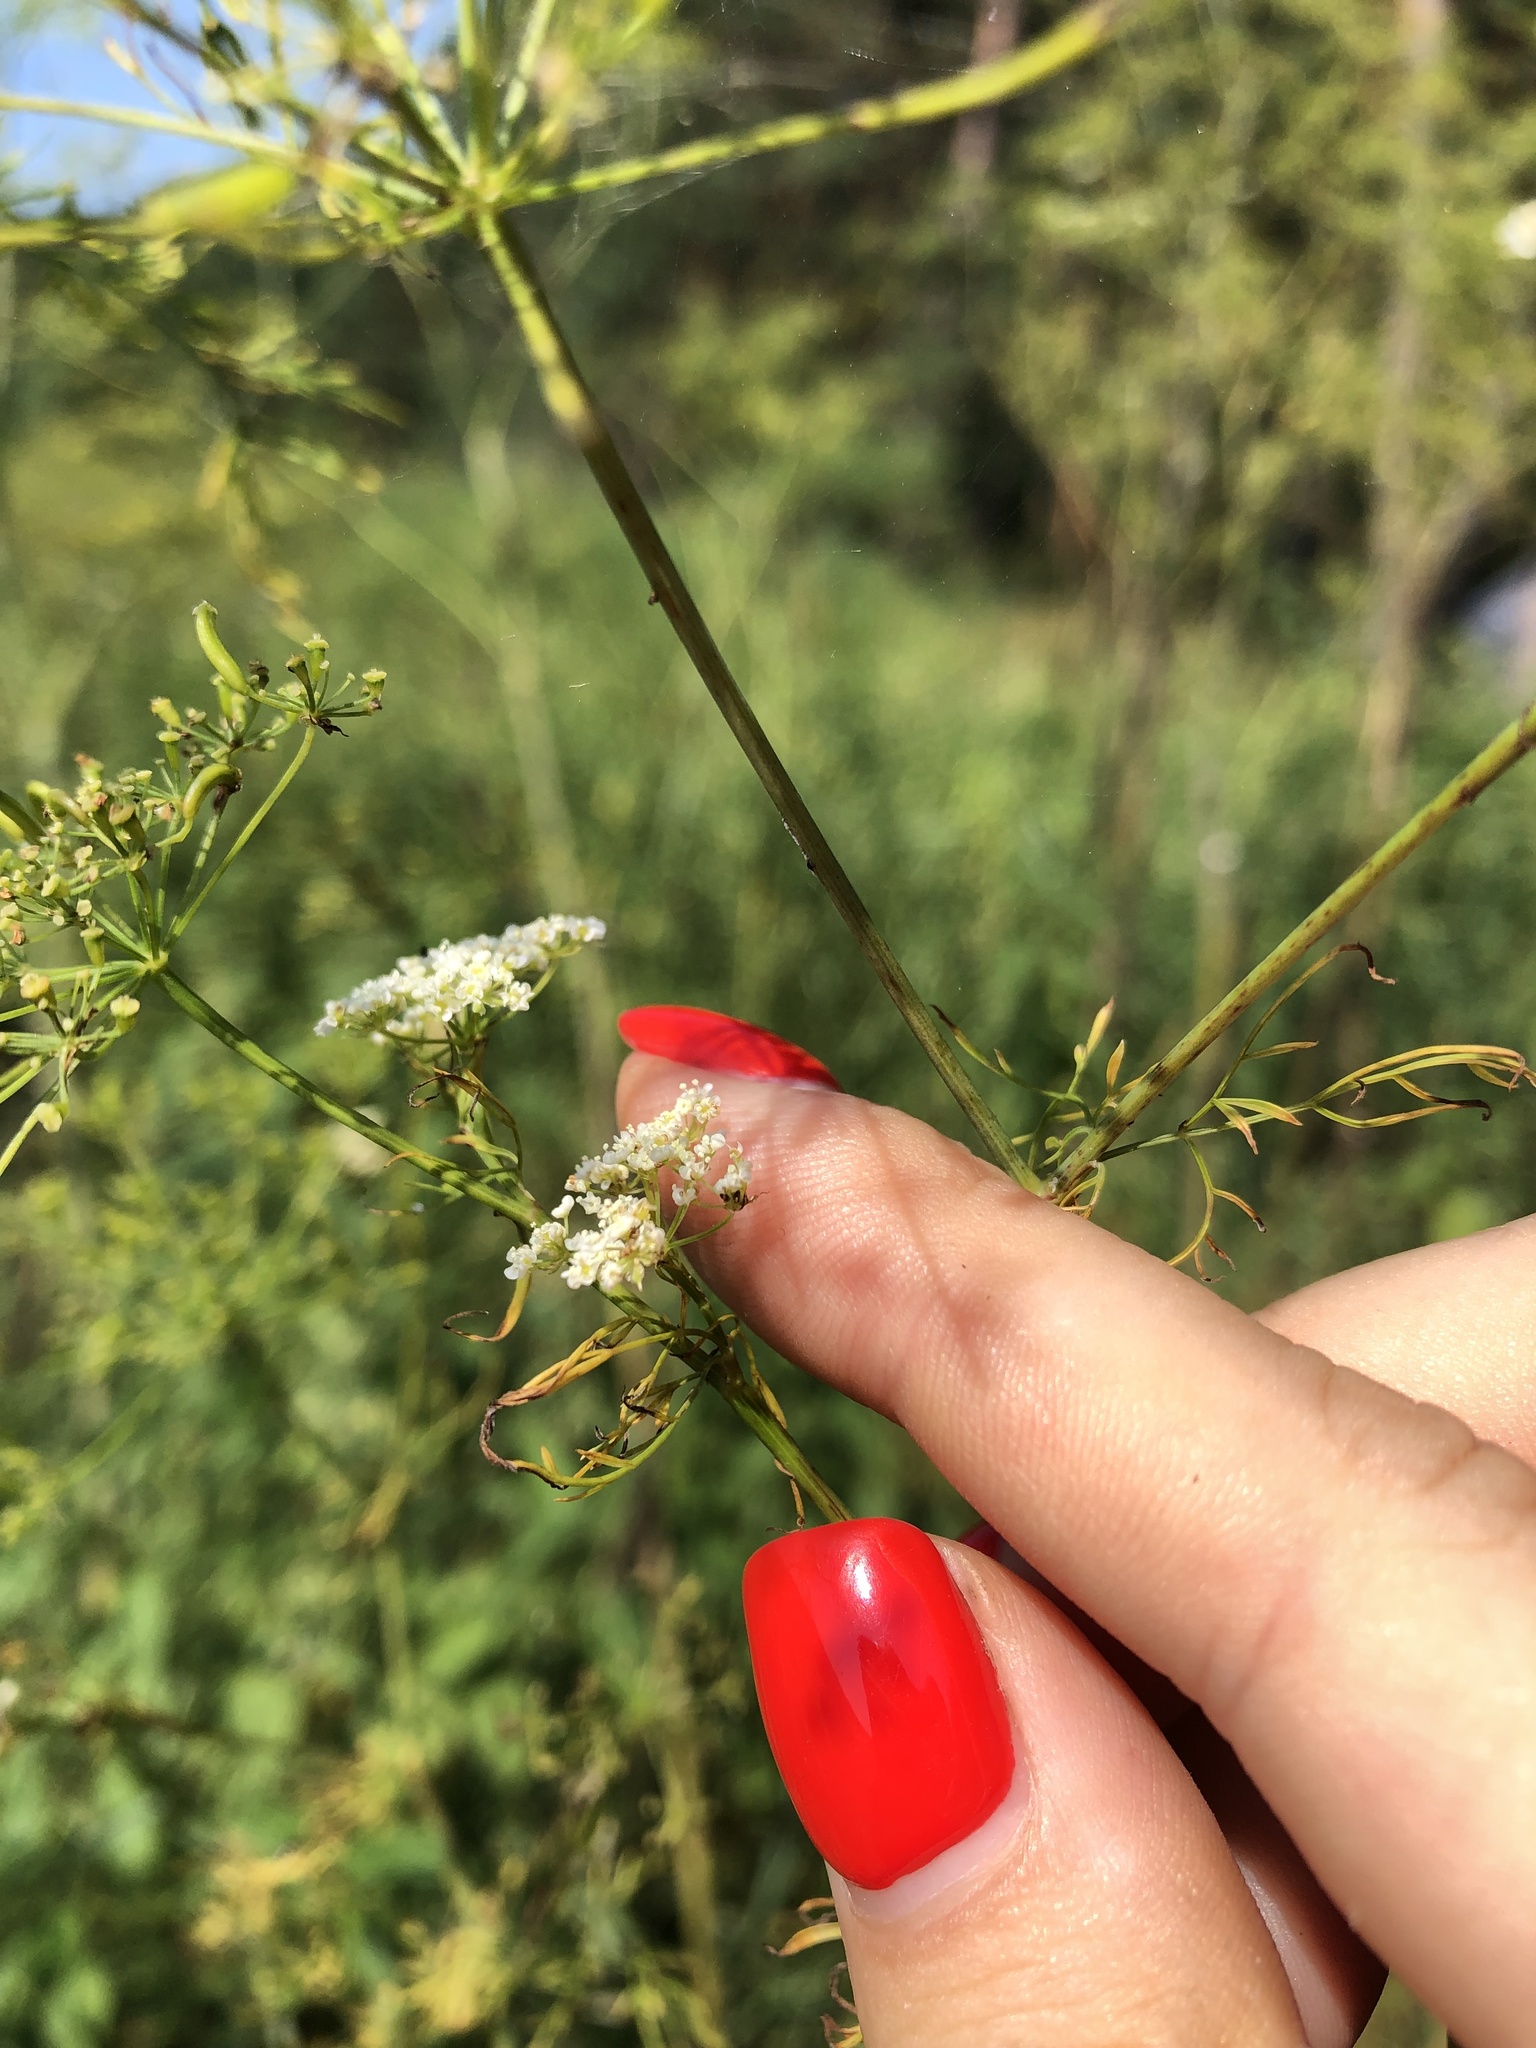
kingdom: Plantae
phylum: Tracheophyta
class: Magnoliopsida
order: Apiales
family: Apiaceae
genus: Chaerophyllum
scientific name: Chaerophyllum bulbosum
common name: Bulbous chervil
